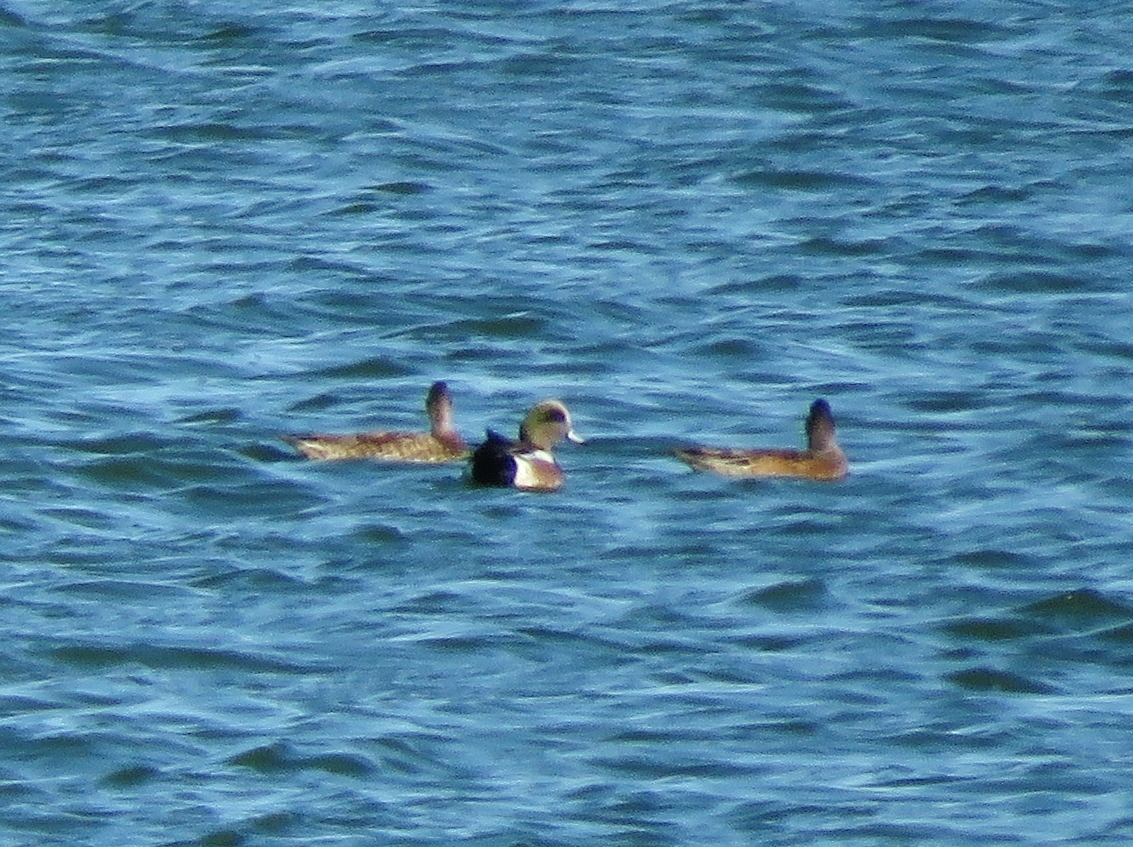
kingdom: Animalia
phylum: Chordata
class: Aves
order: Anseriformes
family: Anatidae
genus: Mareca
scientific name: Mareca americana
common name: American wigeon
